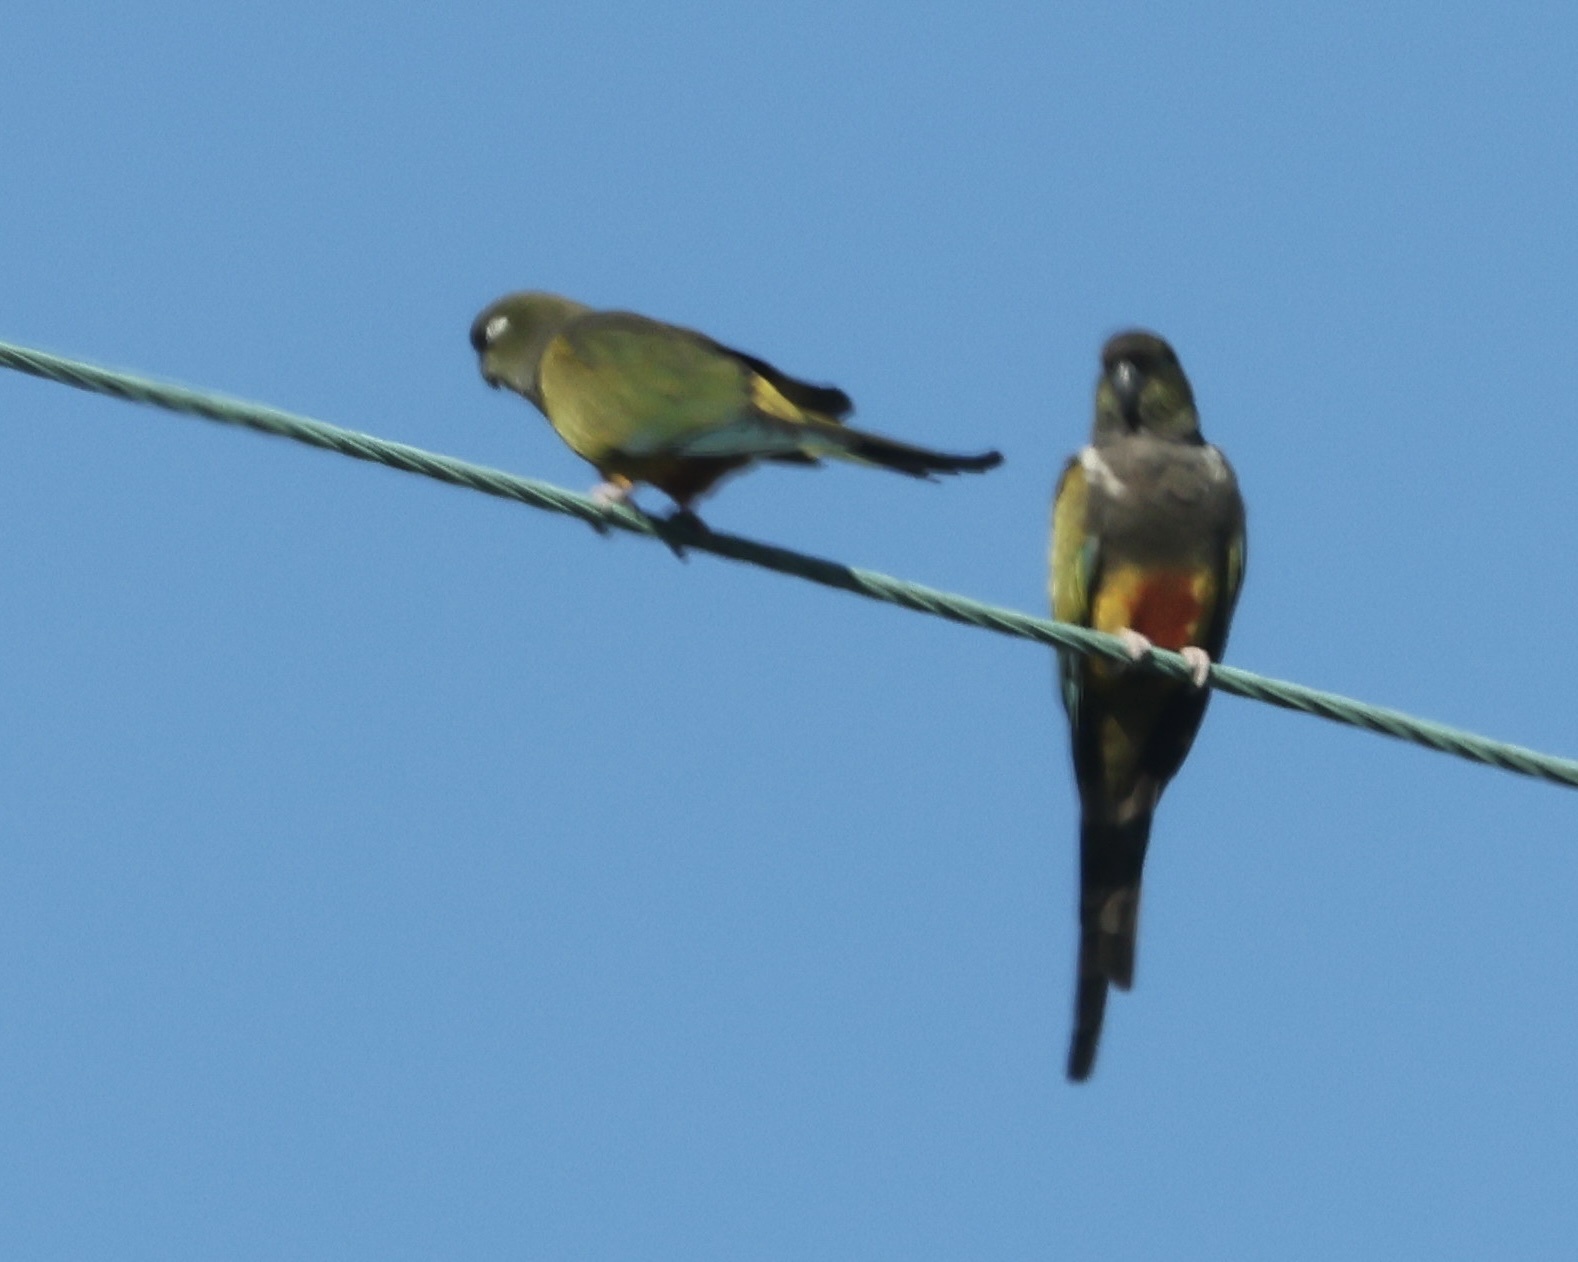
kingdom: Animalia
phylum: Chordata
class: Aves
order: Psittaciformes
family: Psittacidae
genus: Cyanoliseus
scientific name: Cyanoliseus patagonus
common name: Burrowing parrot
